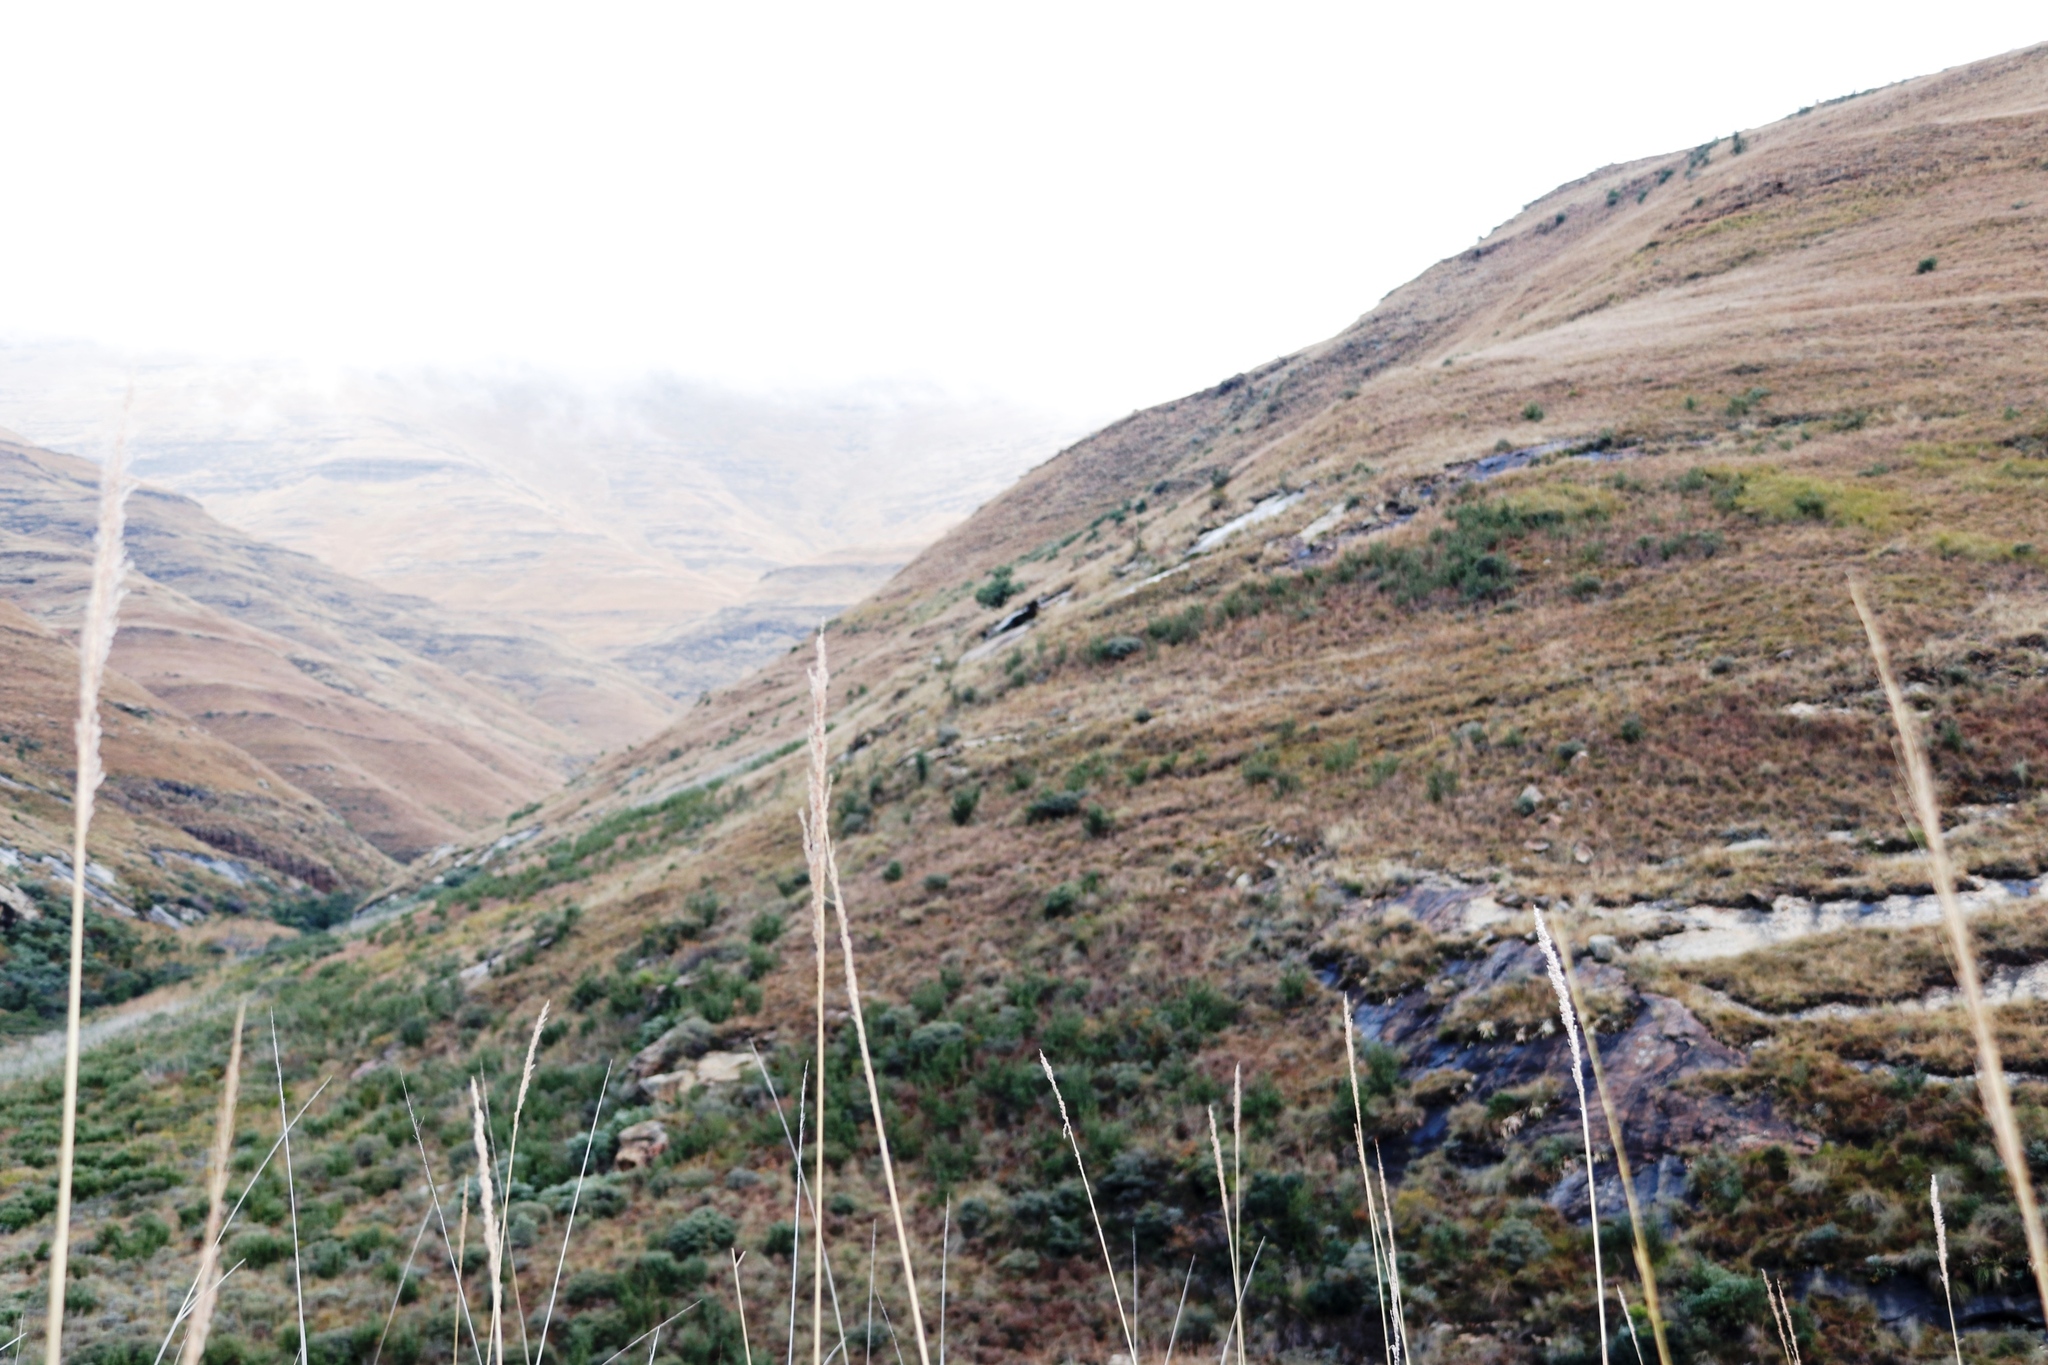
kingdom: Plantae
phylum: Tracheophyta
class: Magnoliopsida
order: Proteales
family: Proteaceae
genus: Protea
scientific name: Protea caffra
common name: Common sugarbush
